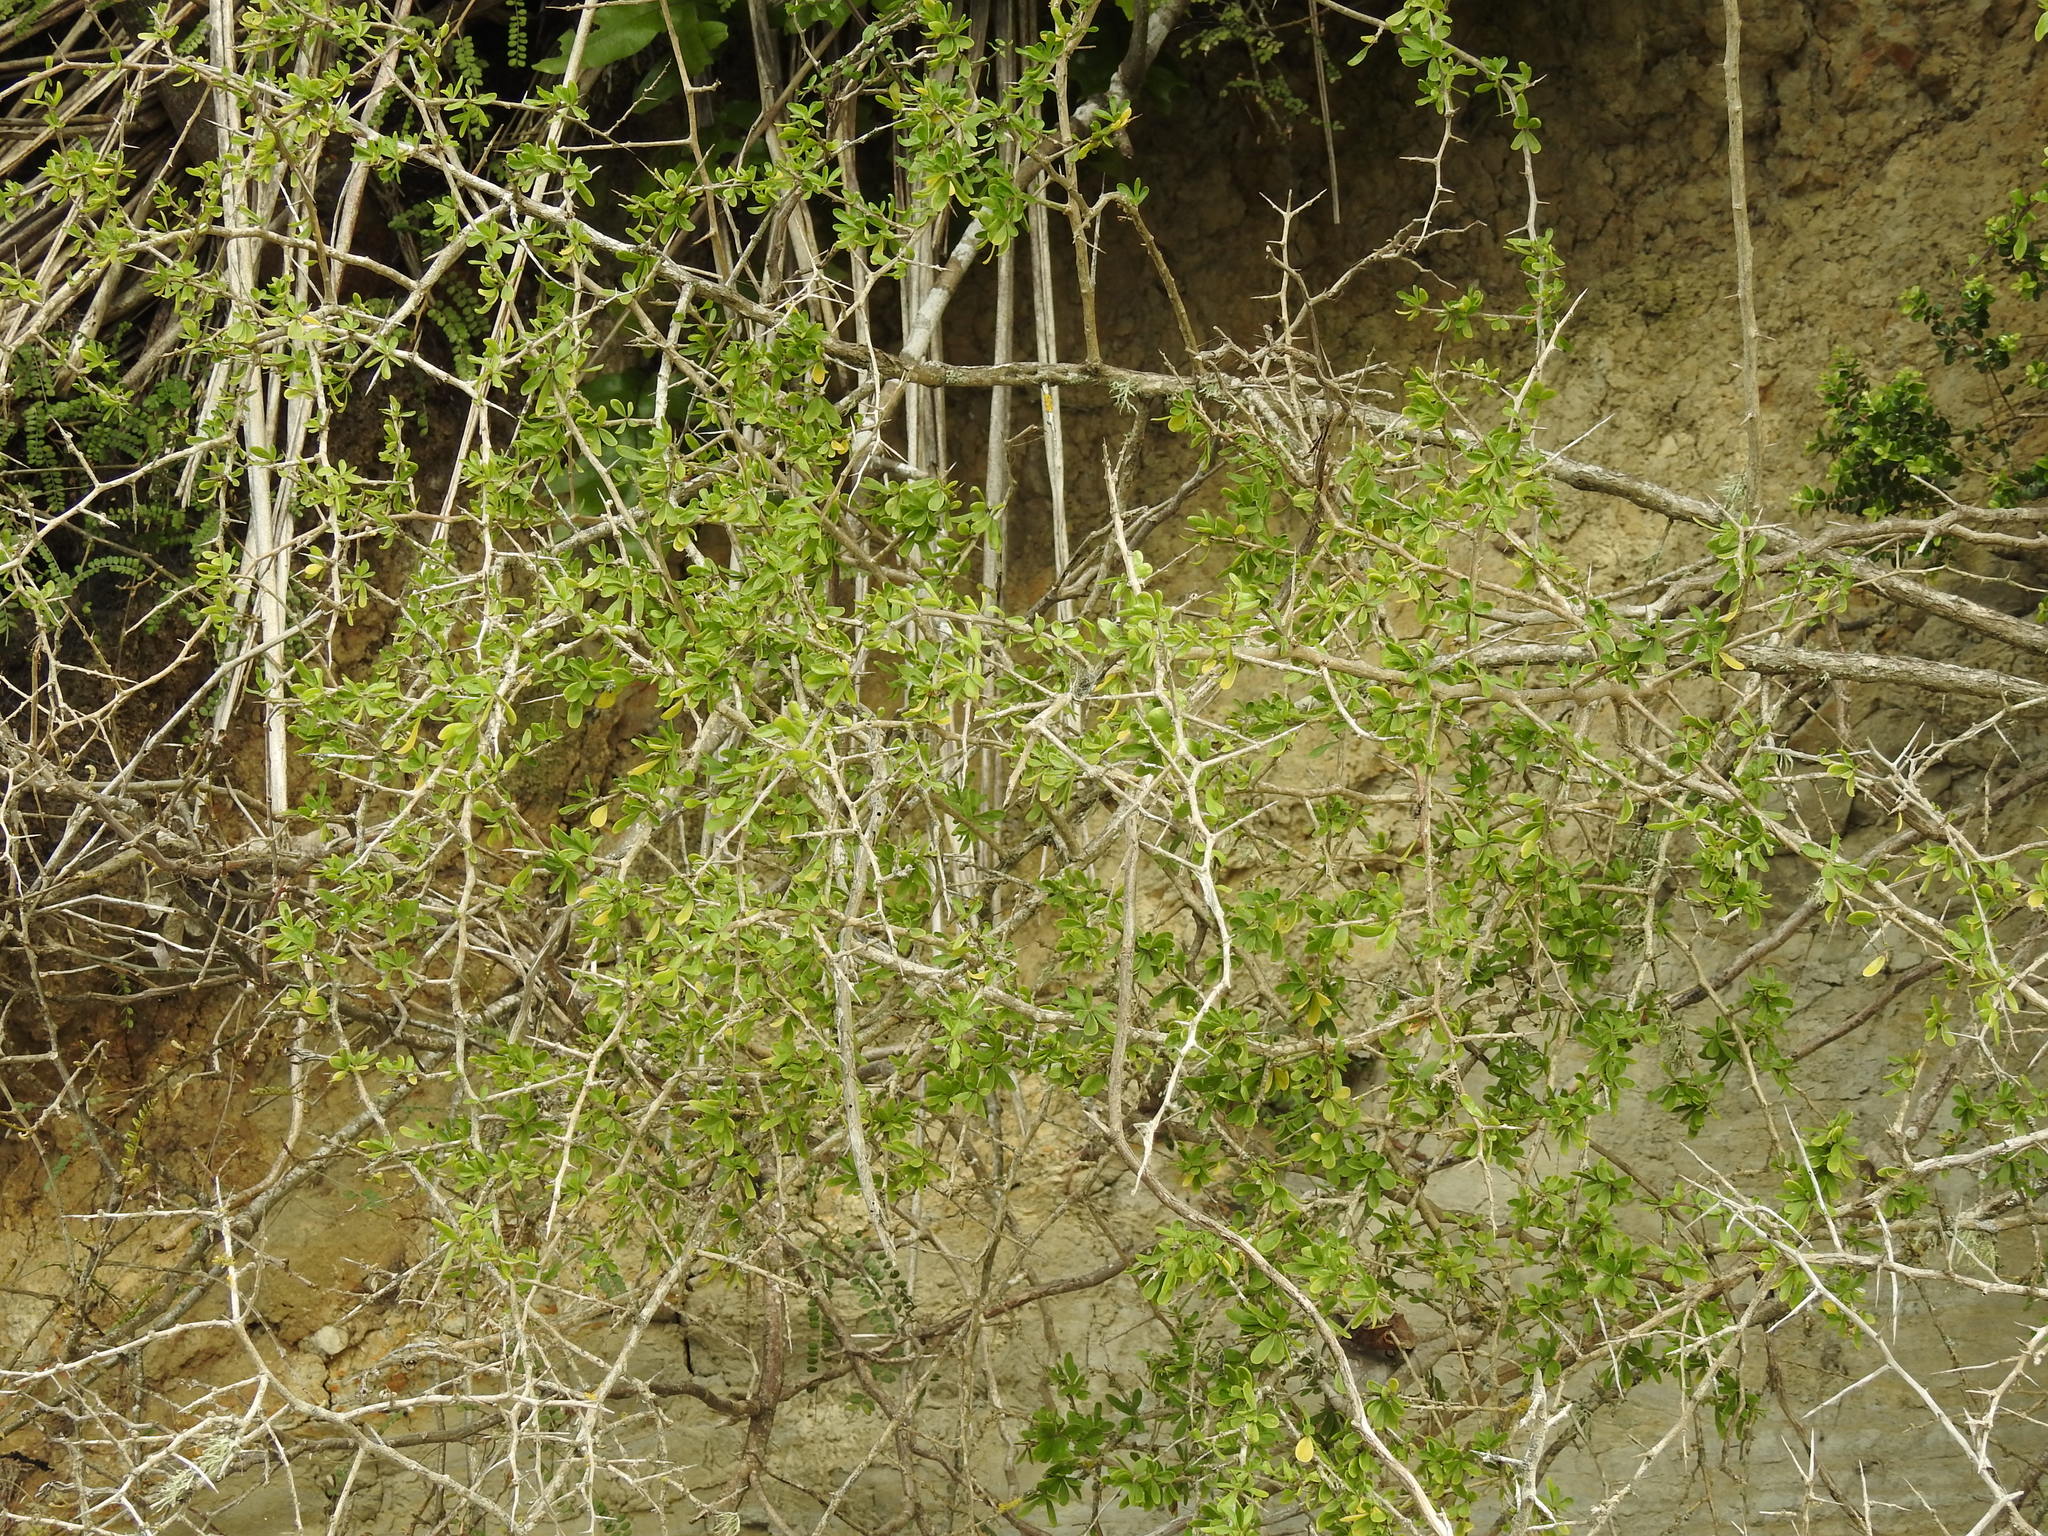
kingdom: Plantae
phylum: Tracheophyta
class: Magnoliopsida
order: Solanales
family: Solanaceae
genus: Lycium
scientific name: Lycium ferocissimum
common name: African boxthorn
